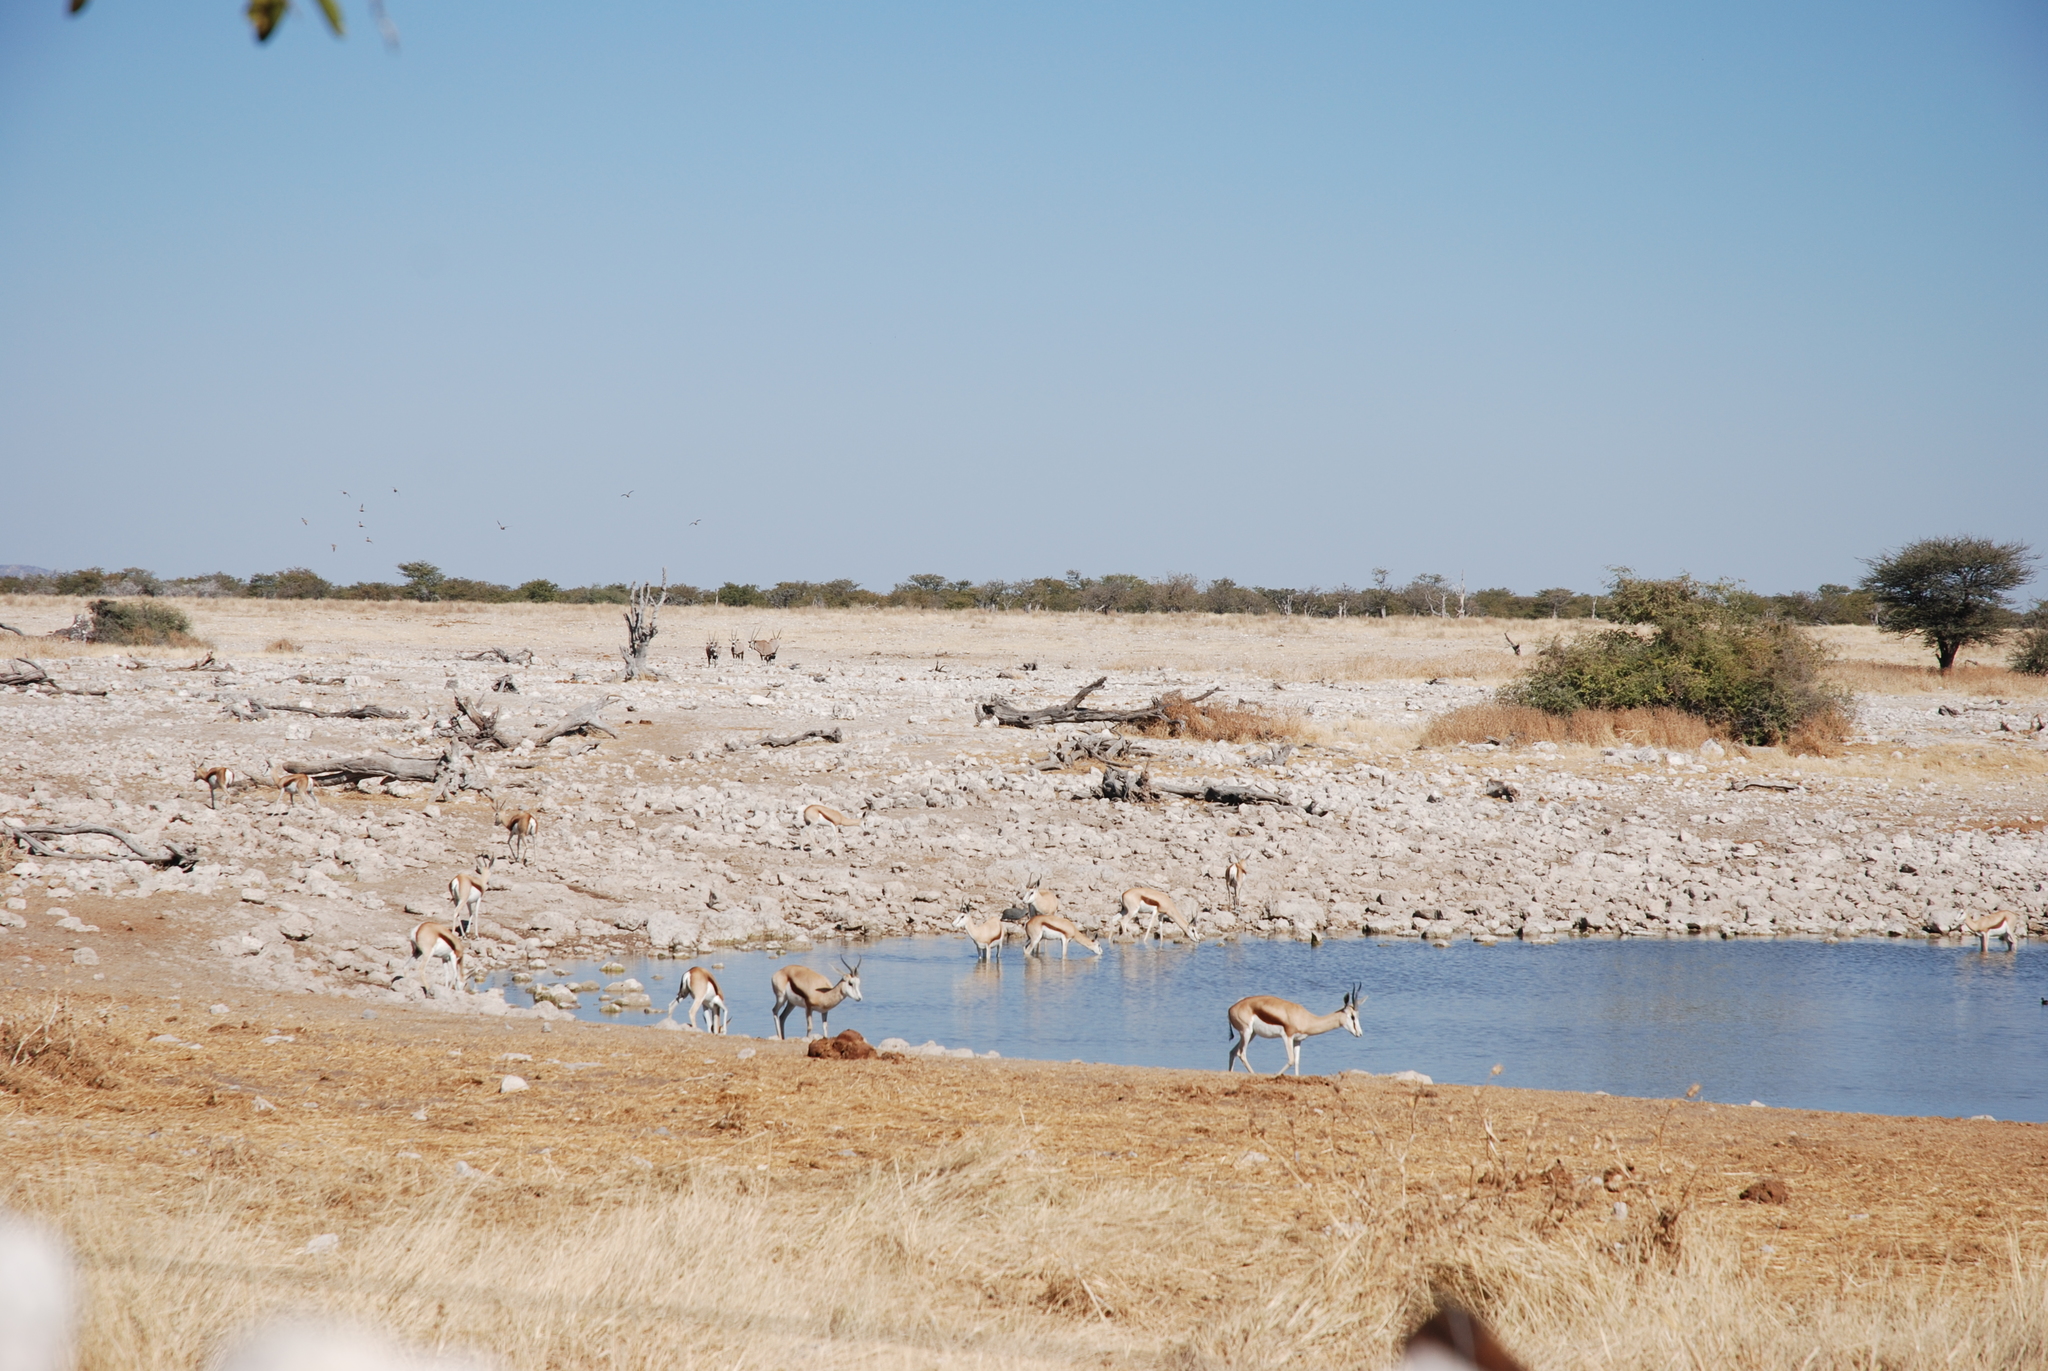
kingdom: Animalia
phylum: Chordata
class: Mammalia
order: Artiodactyla
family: Bovidae
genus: Antidorcas
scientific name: Antidorcas marsupialis
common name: Springbok
